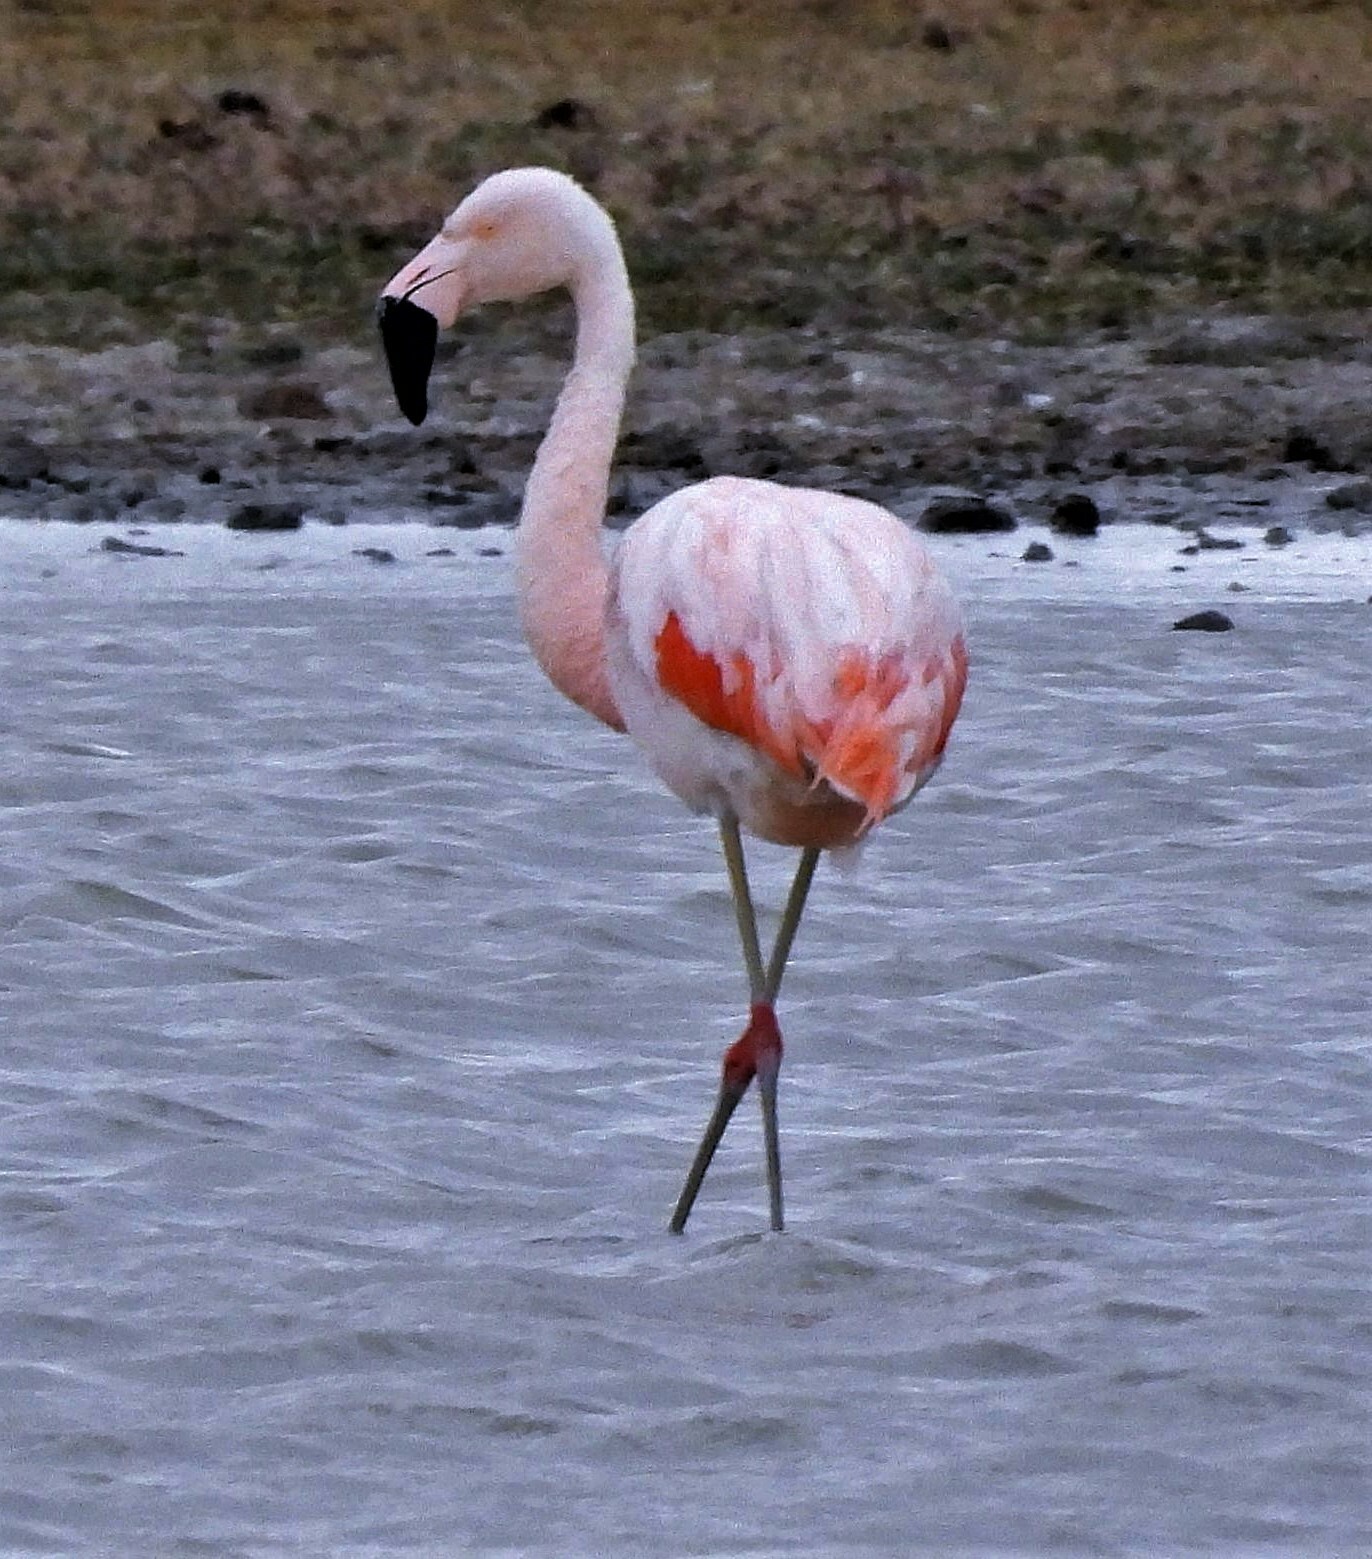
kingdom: Animalia
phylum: Chordata
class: Aves
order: Phoenicopteriformes
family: Phoenicopteridae
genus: Phoenicopterus
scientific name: Phoenicopterus chilensis
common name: Chilean flamingo
